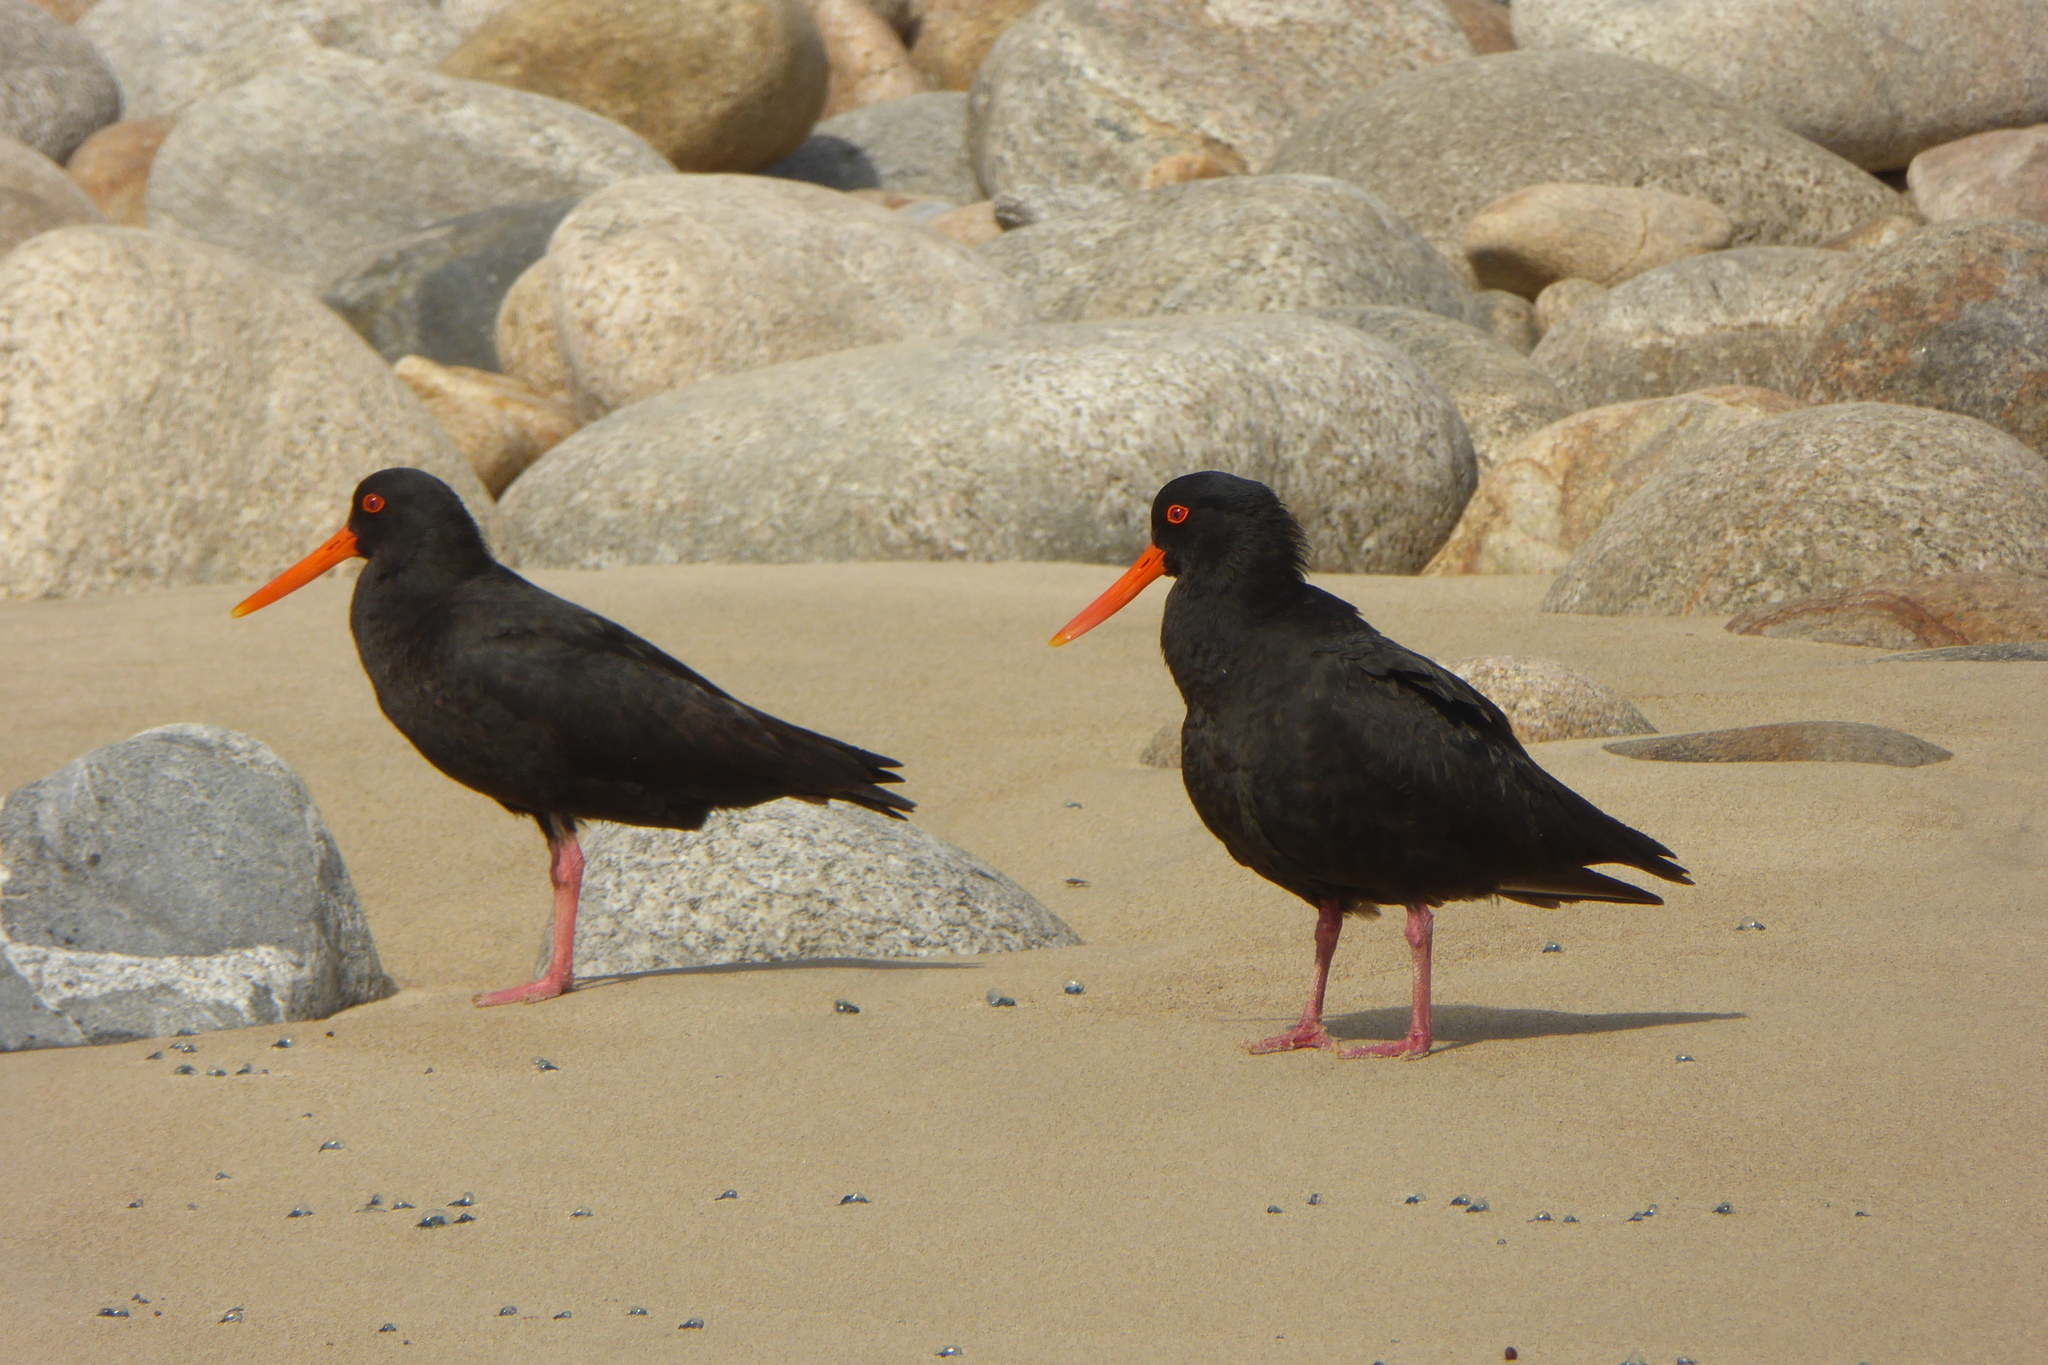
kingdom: Animalia
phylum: Chordata
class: Aves
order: Charadriiformes
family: Haematopodidae
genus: Haematopus
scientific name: Haematopus unicolor
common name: Variable oystercatcher
